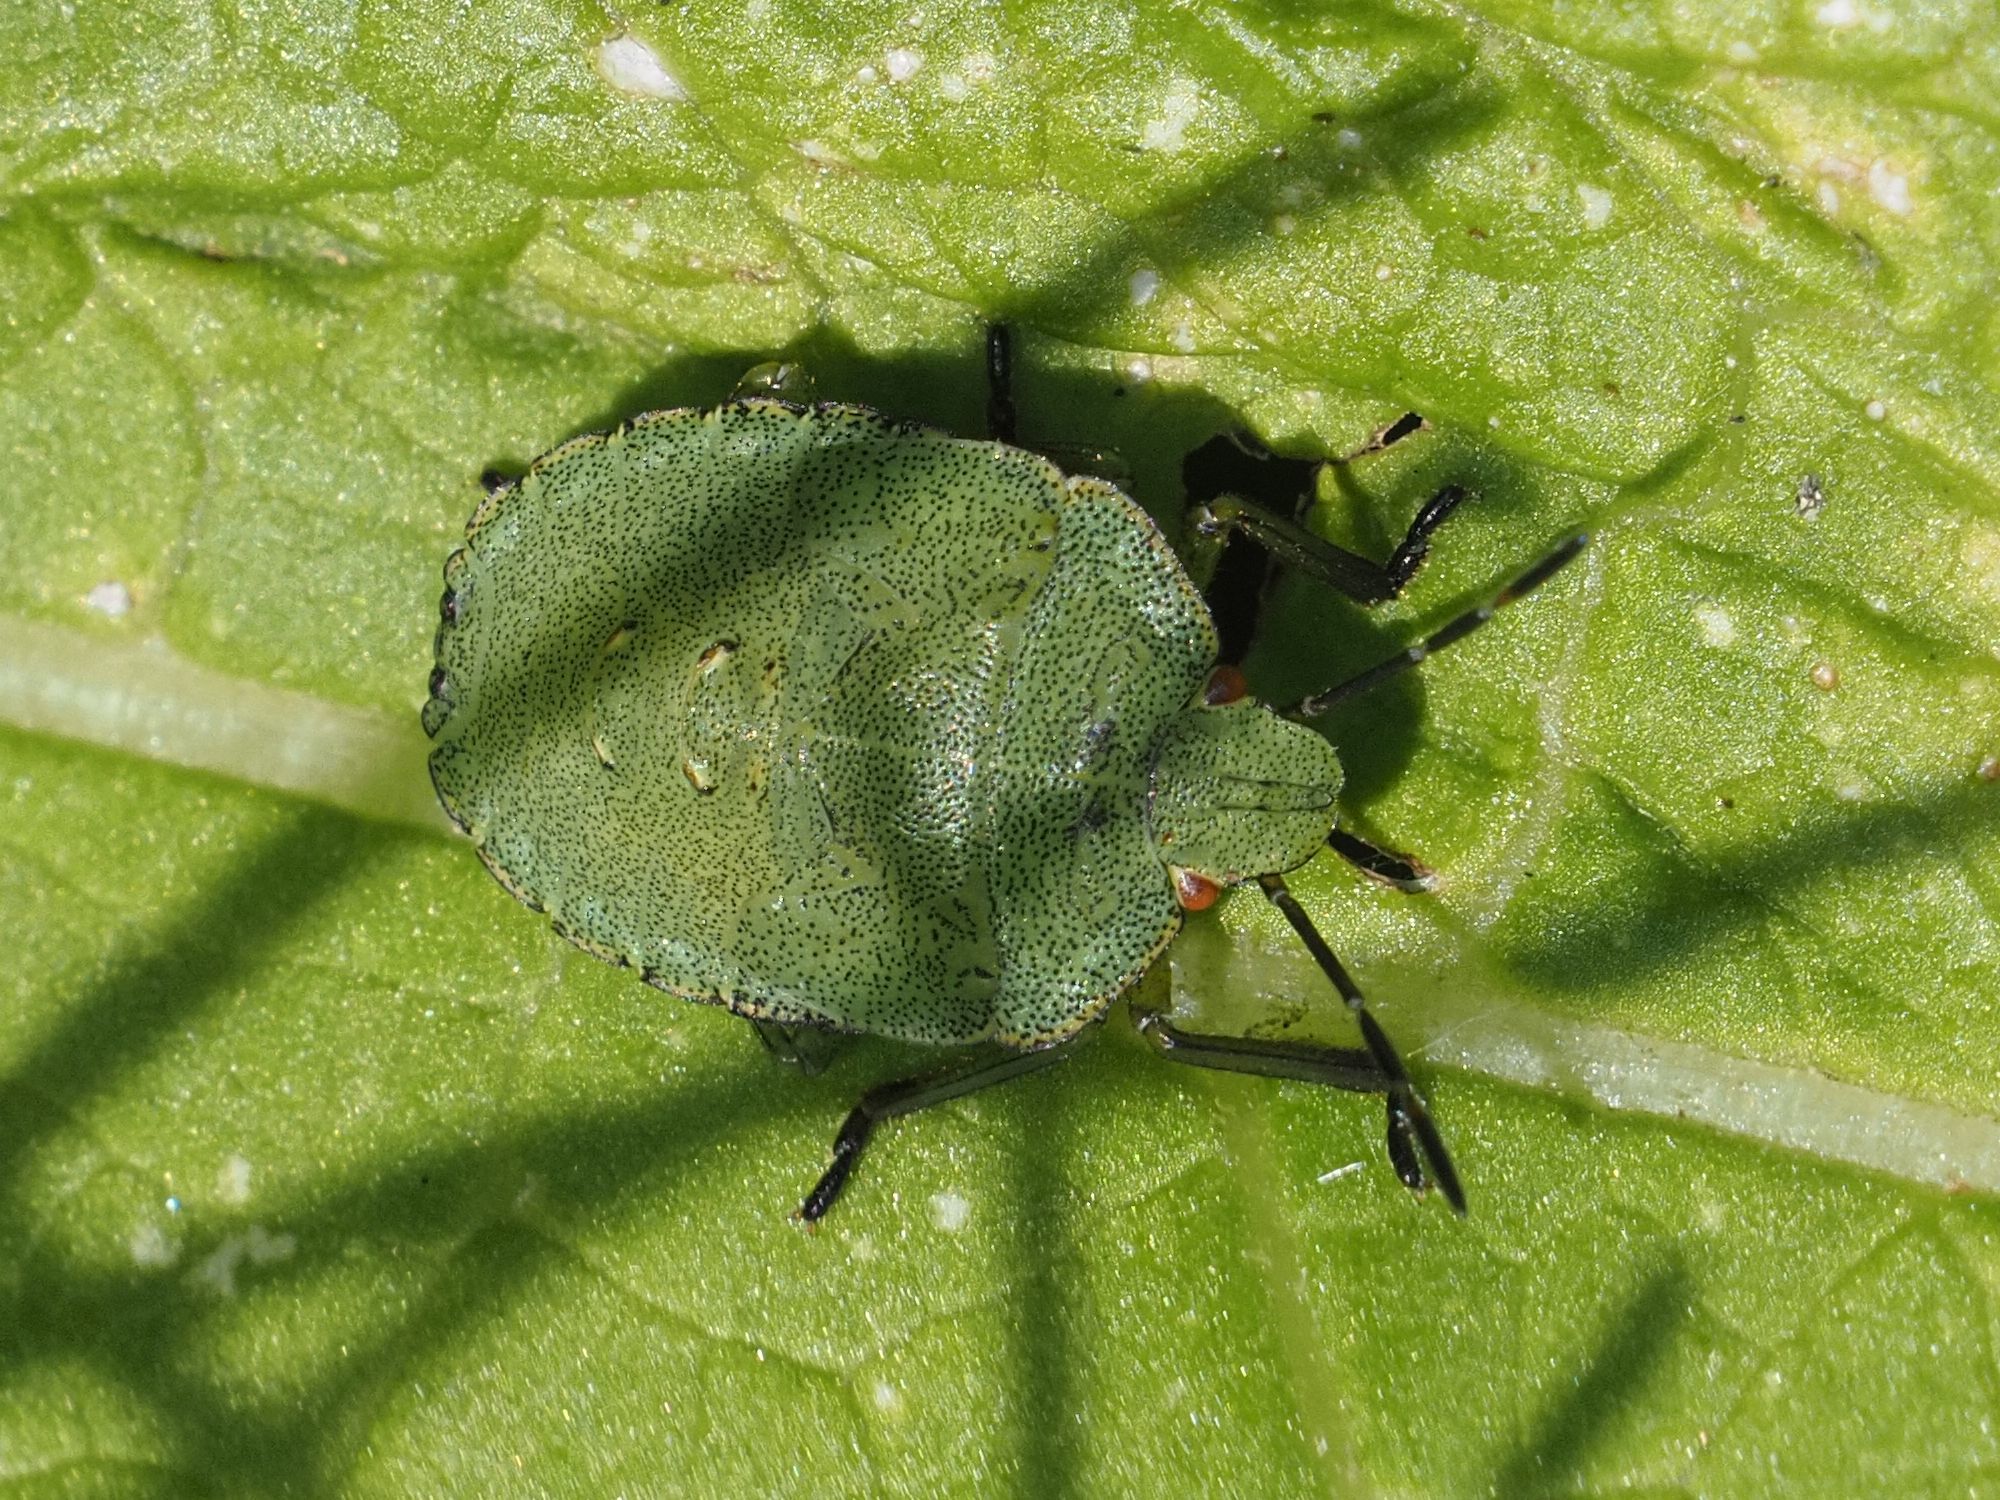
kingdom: Animalia
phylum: Arthropoda
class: Insecta
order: Hemiptera
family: Pentatomidae
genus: Palomena
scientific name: Palomena prasina
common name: Green shieldbug
